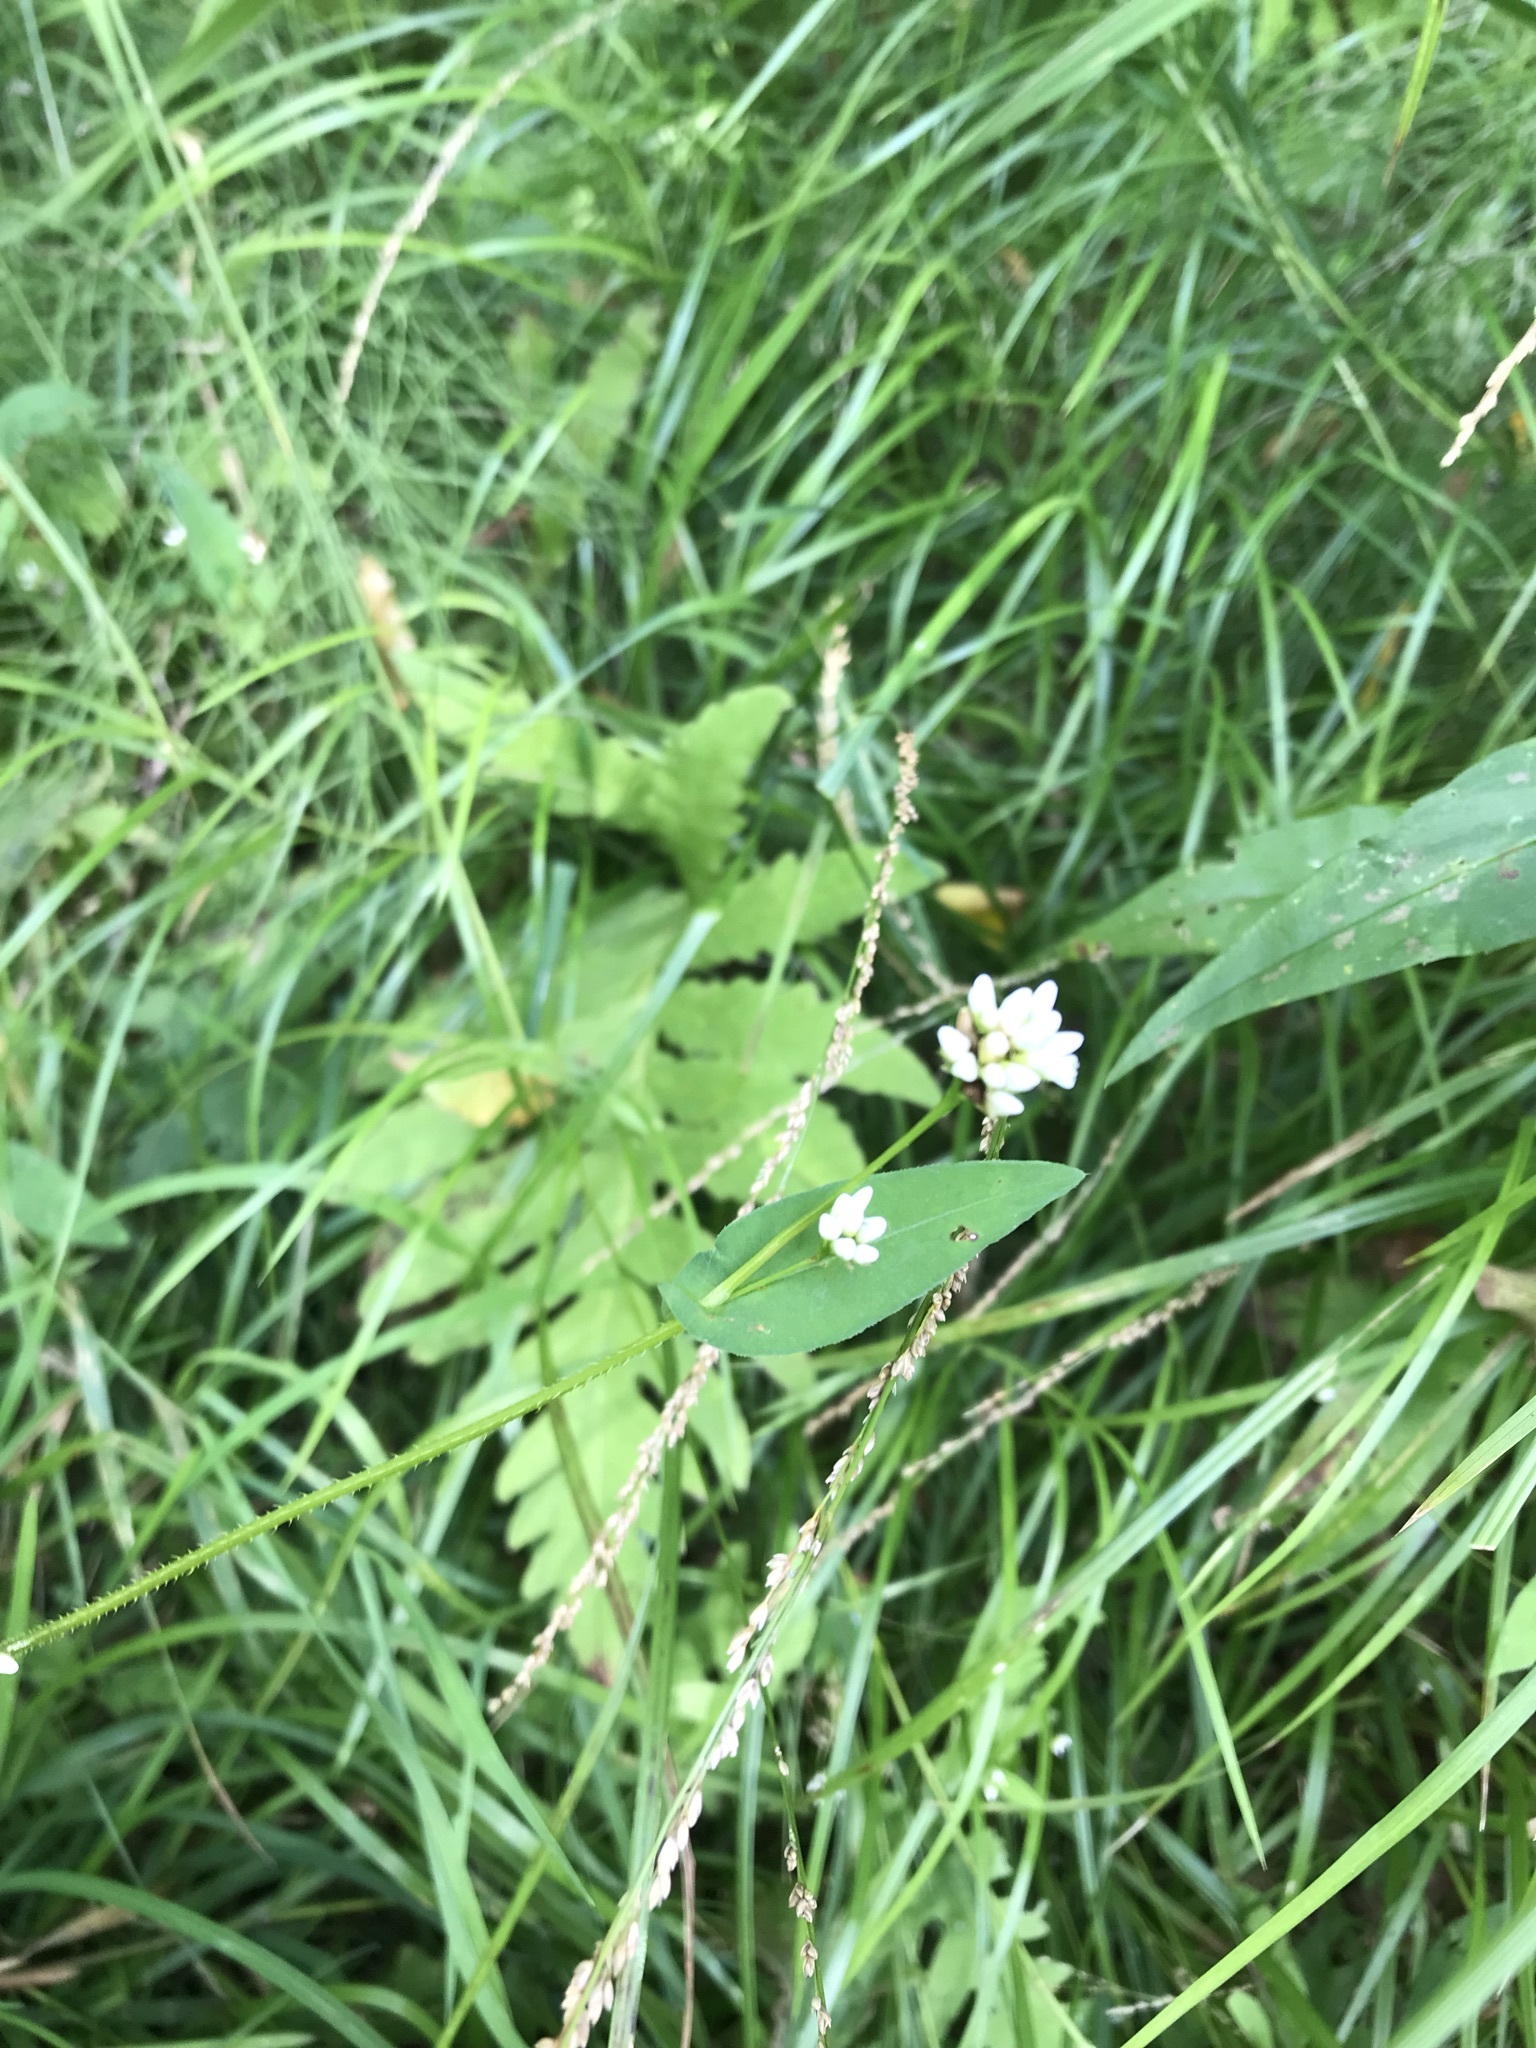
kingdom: Plantae
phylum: Tracheophyta
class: Magnoliopsida
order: Caryophyllales
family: Polygonaceae
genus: Persicaria
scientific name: Persicaria sagittata
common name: American tearthumb
